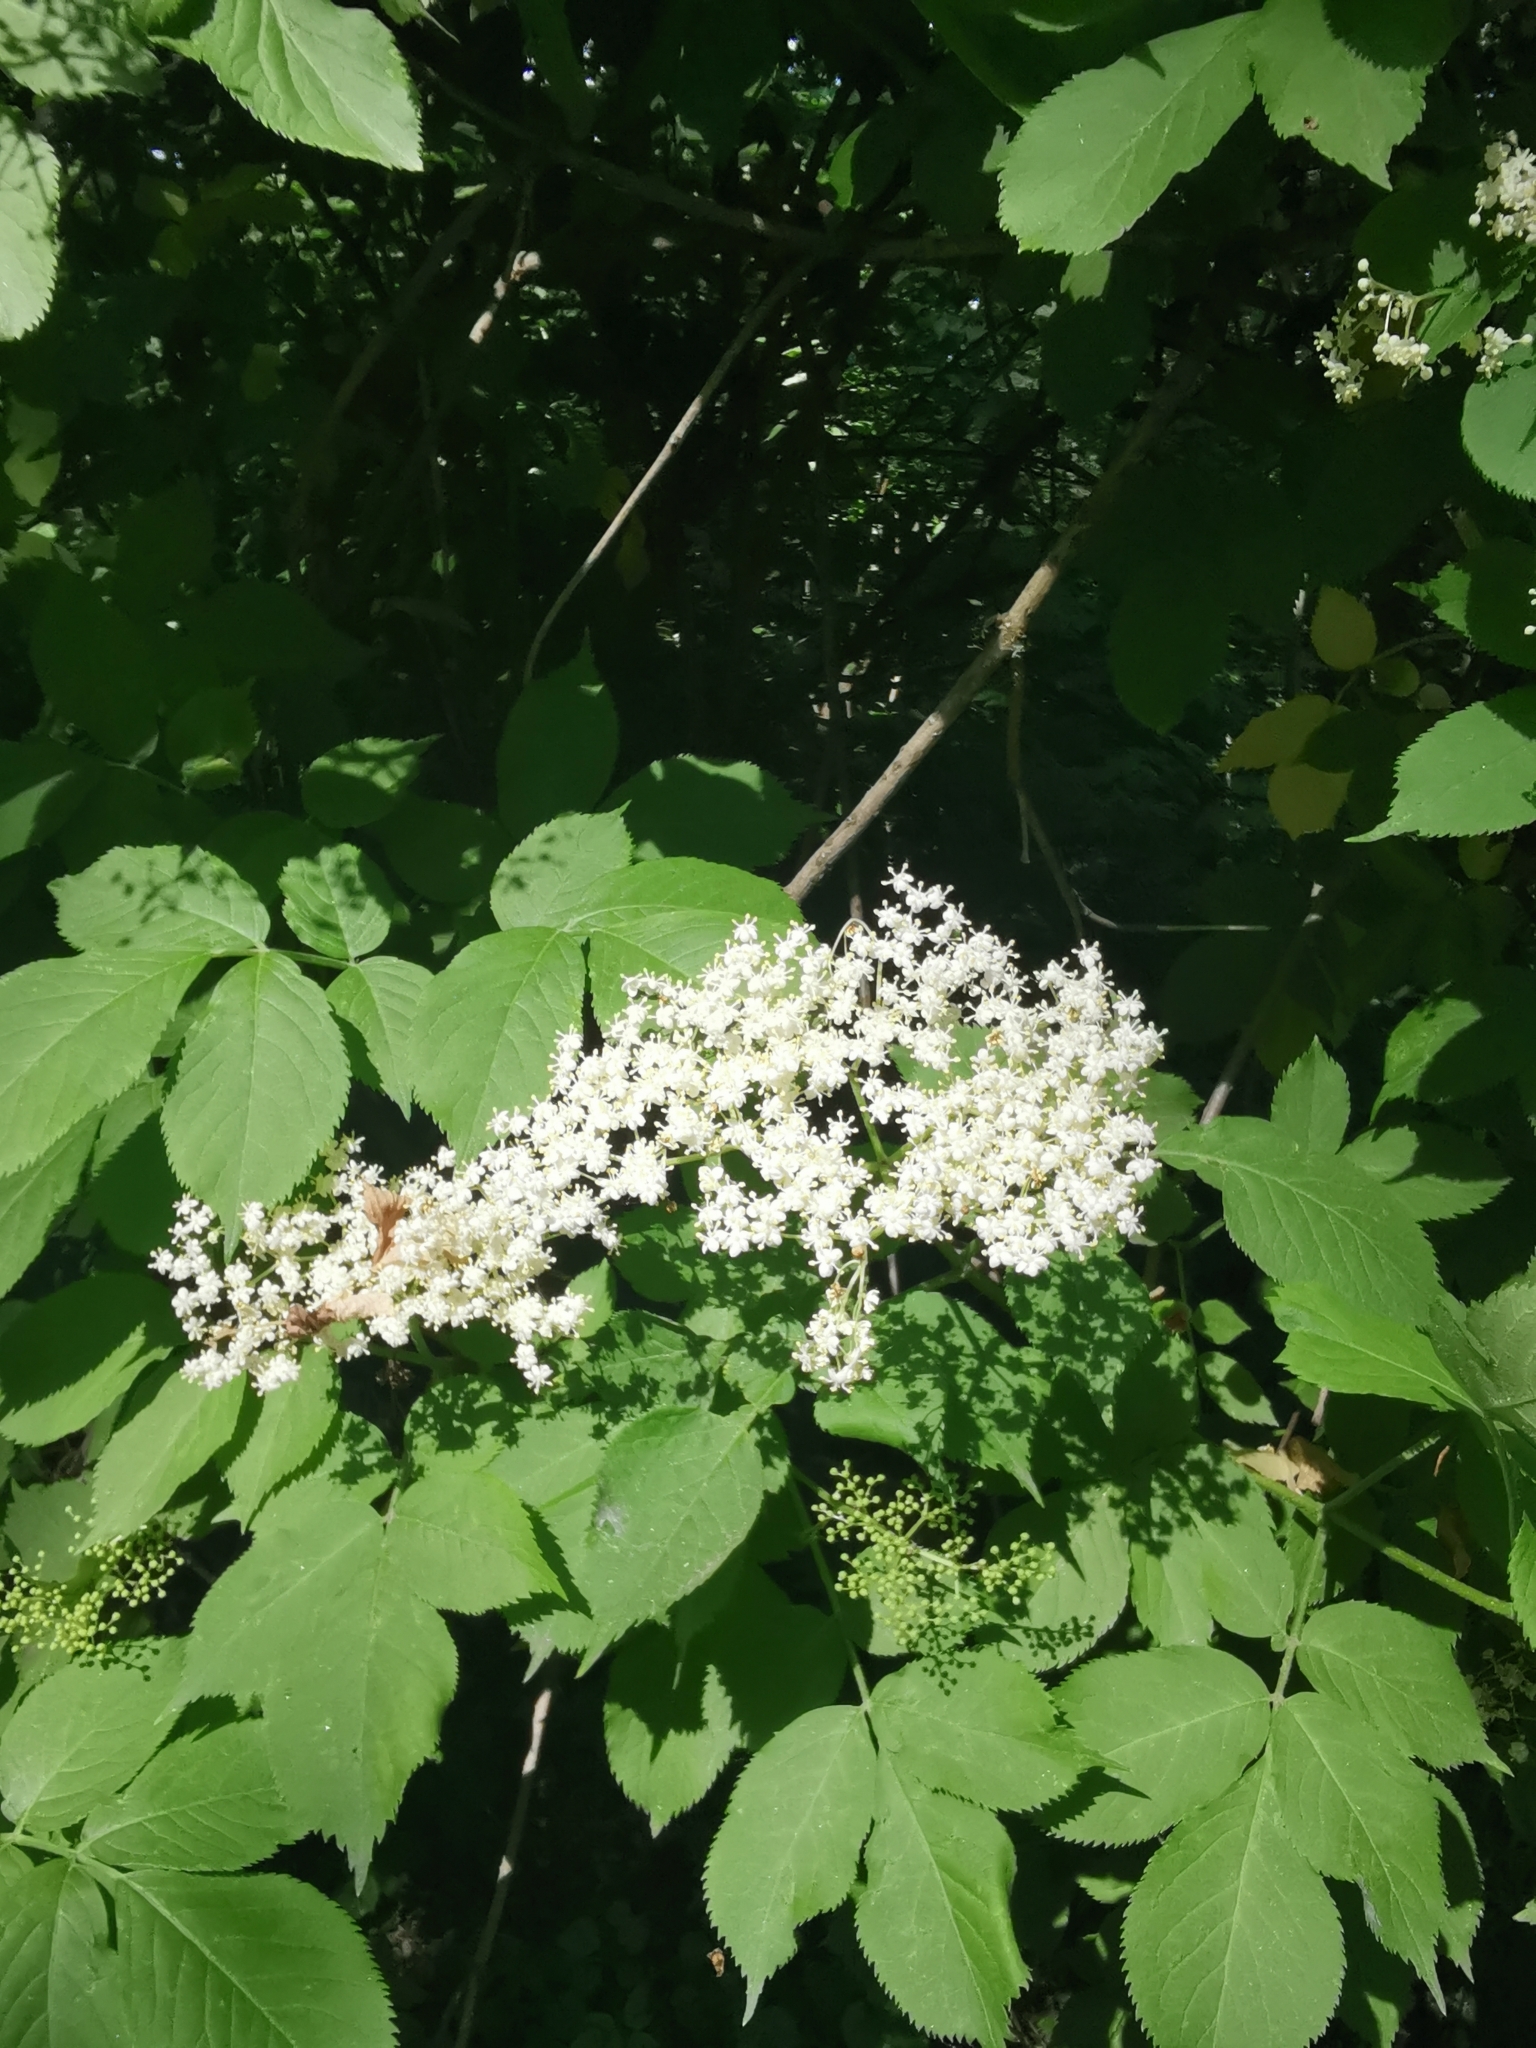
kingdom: Plantae
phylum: Tracheophyta
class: Magnoliopsida
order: Dipsacales
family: Viburnaceae
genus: Sambucus
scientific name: Sambucus nigra
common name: Elder
